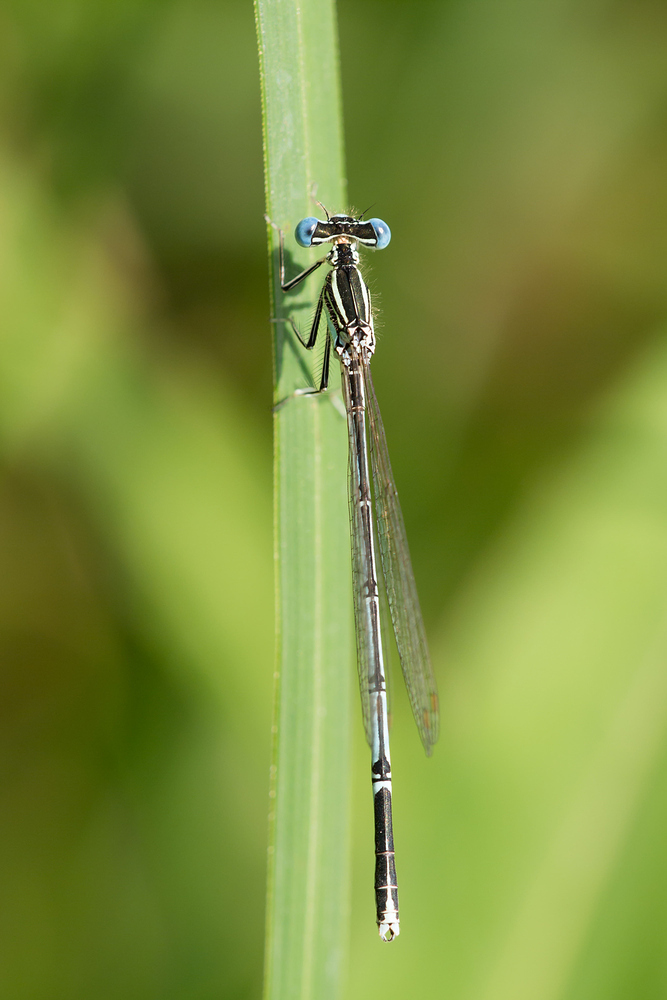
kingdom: Animalia
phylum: Arthropoda
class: Insecta
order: Odonata
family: Platycnemididae
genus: Platycnemis
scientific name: Platycnemis pennipes
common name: White-legged damselfly
